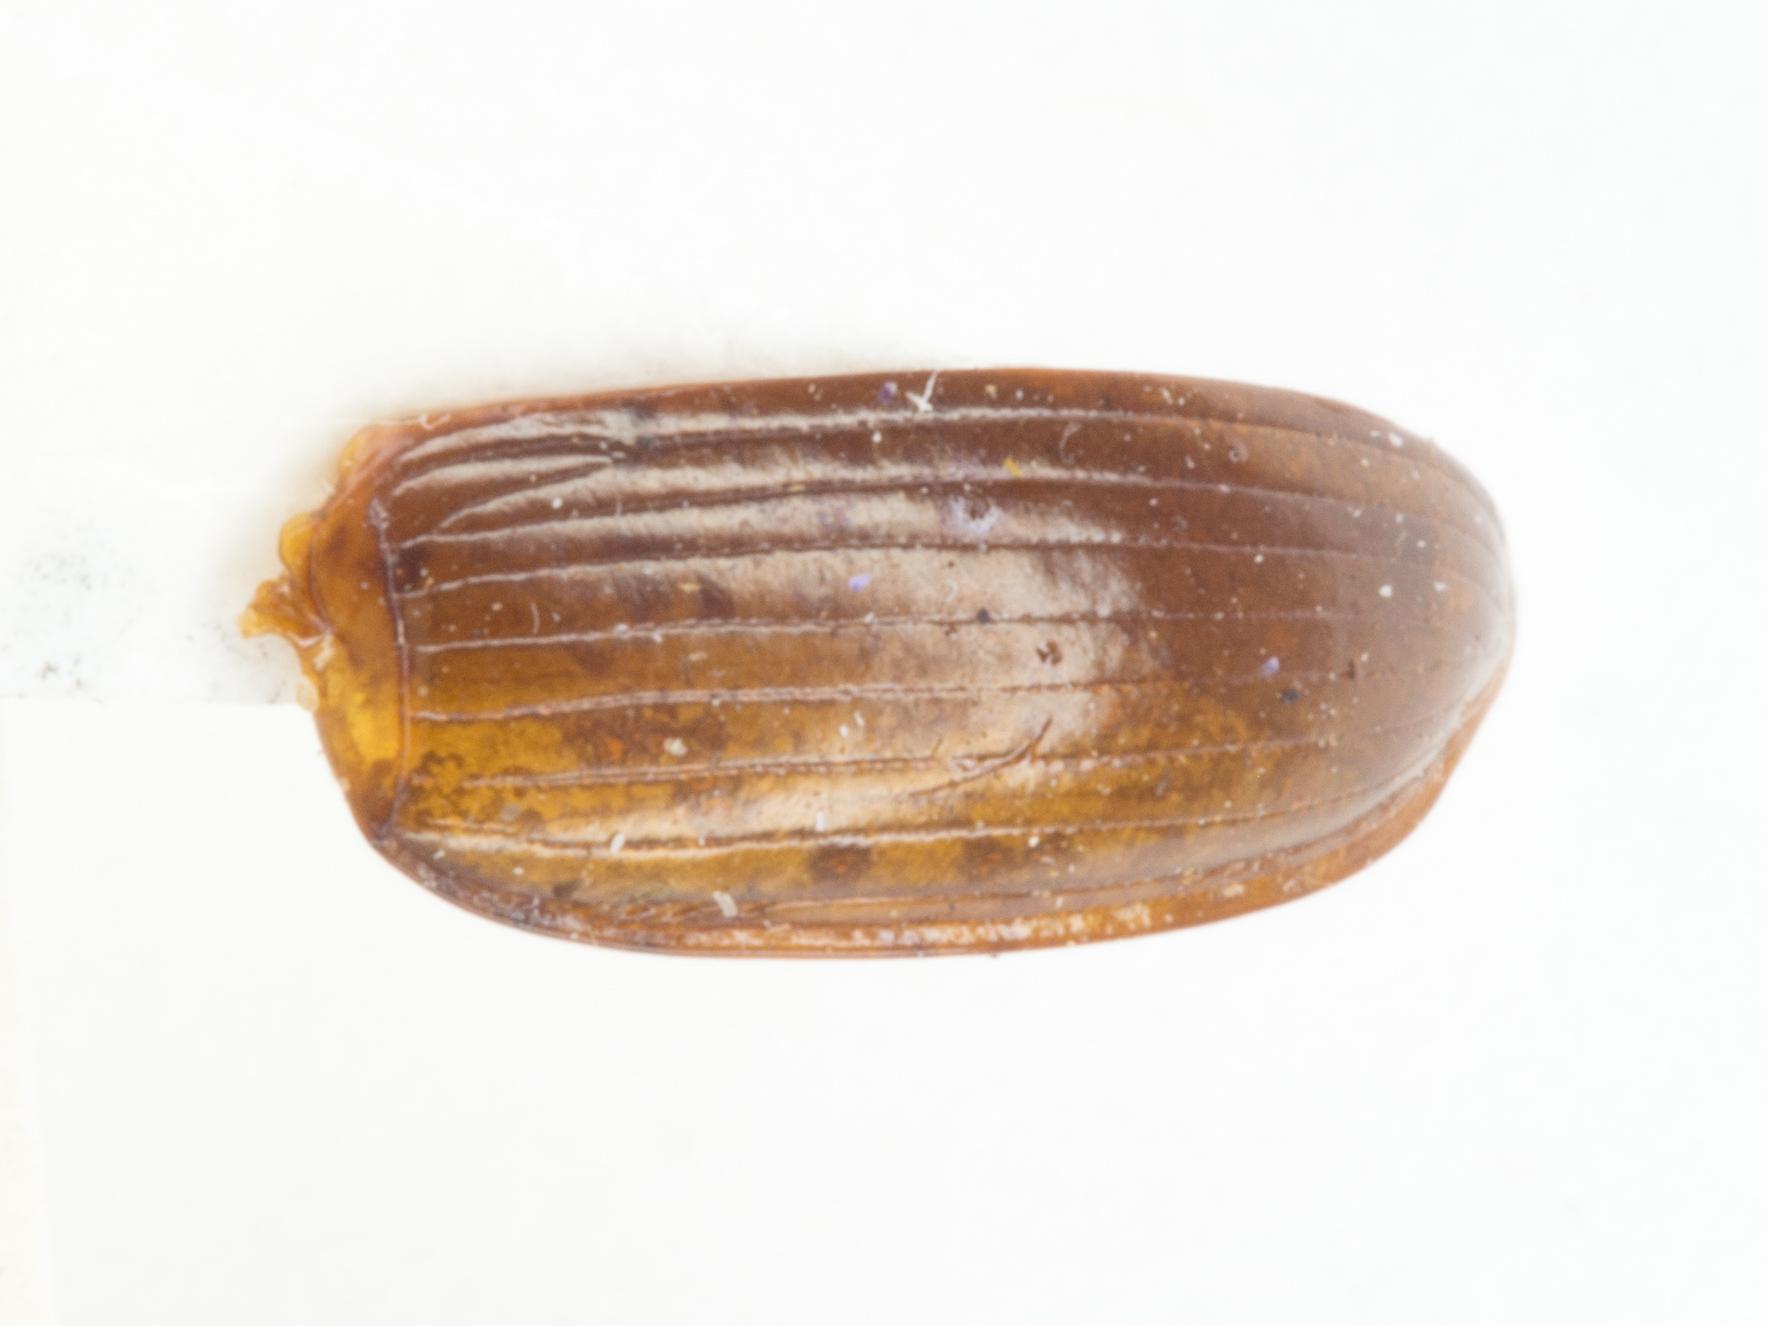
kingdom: Animalia
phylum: Arthropoda
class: Insecta
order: Coleoptera
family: Carabidae
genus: Amara
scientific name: Amara latior
